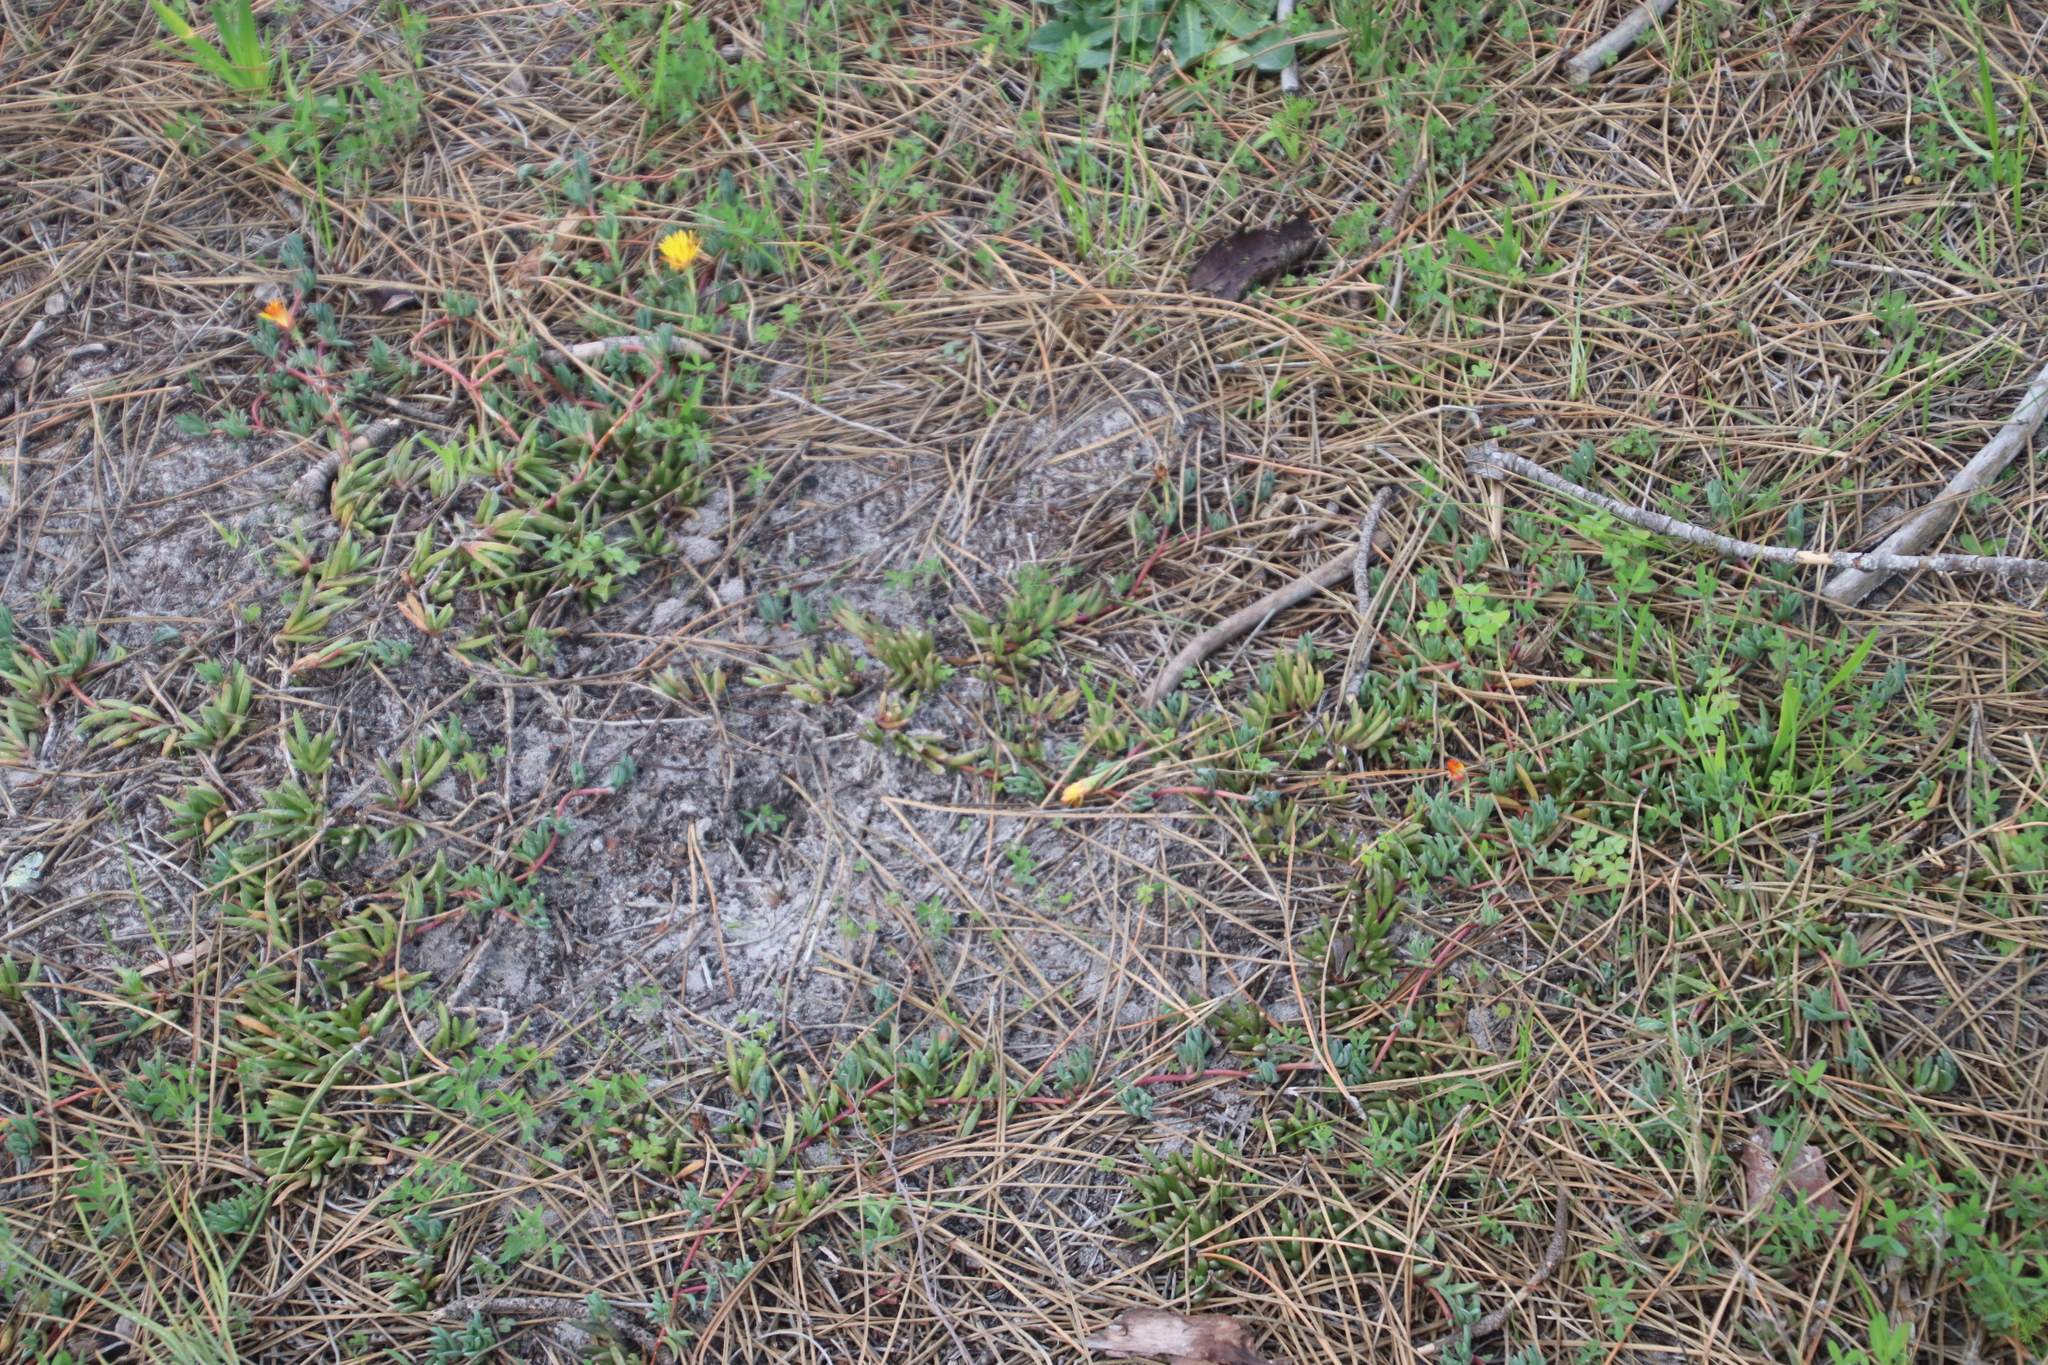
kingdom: Plantae
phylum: Tracheophyta
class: Magnoliopsida
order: Caryophyllales
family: Aizoaceae
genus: Lampranthus
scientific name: Lampranthus reptans
